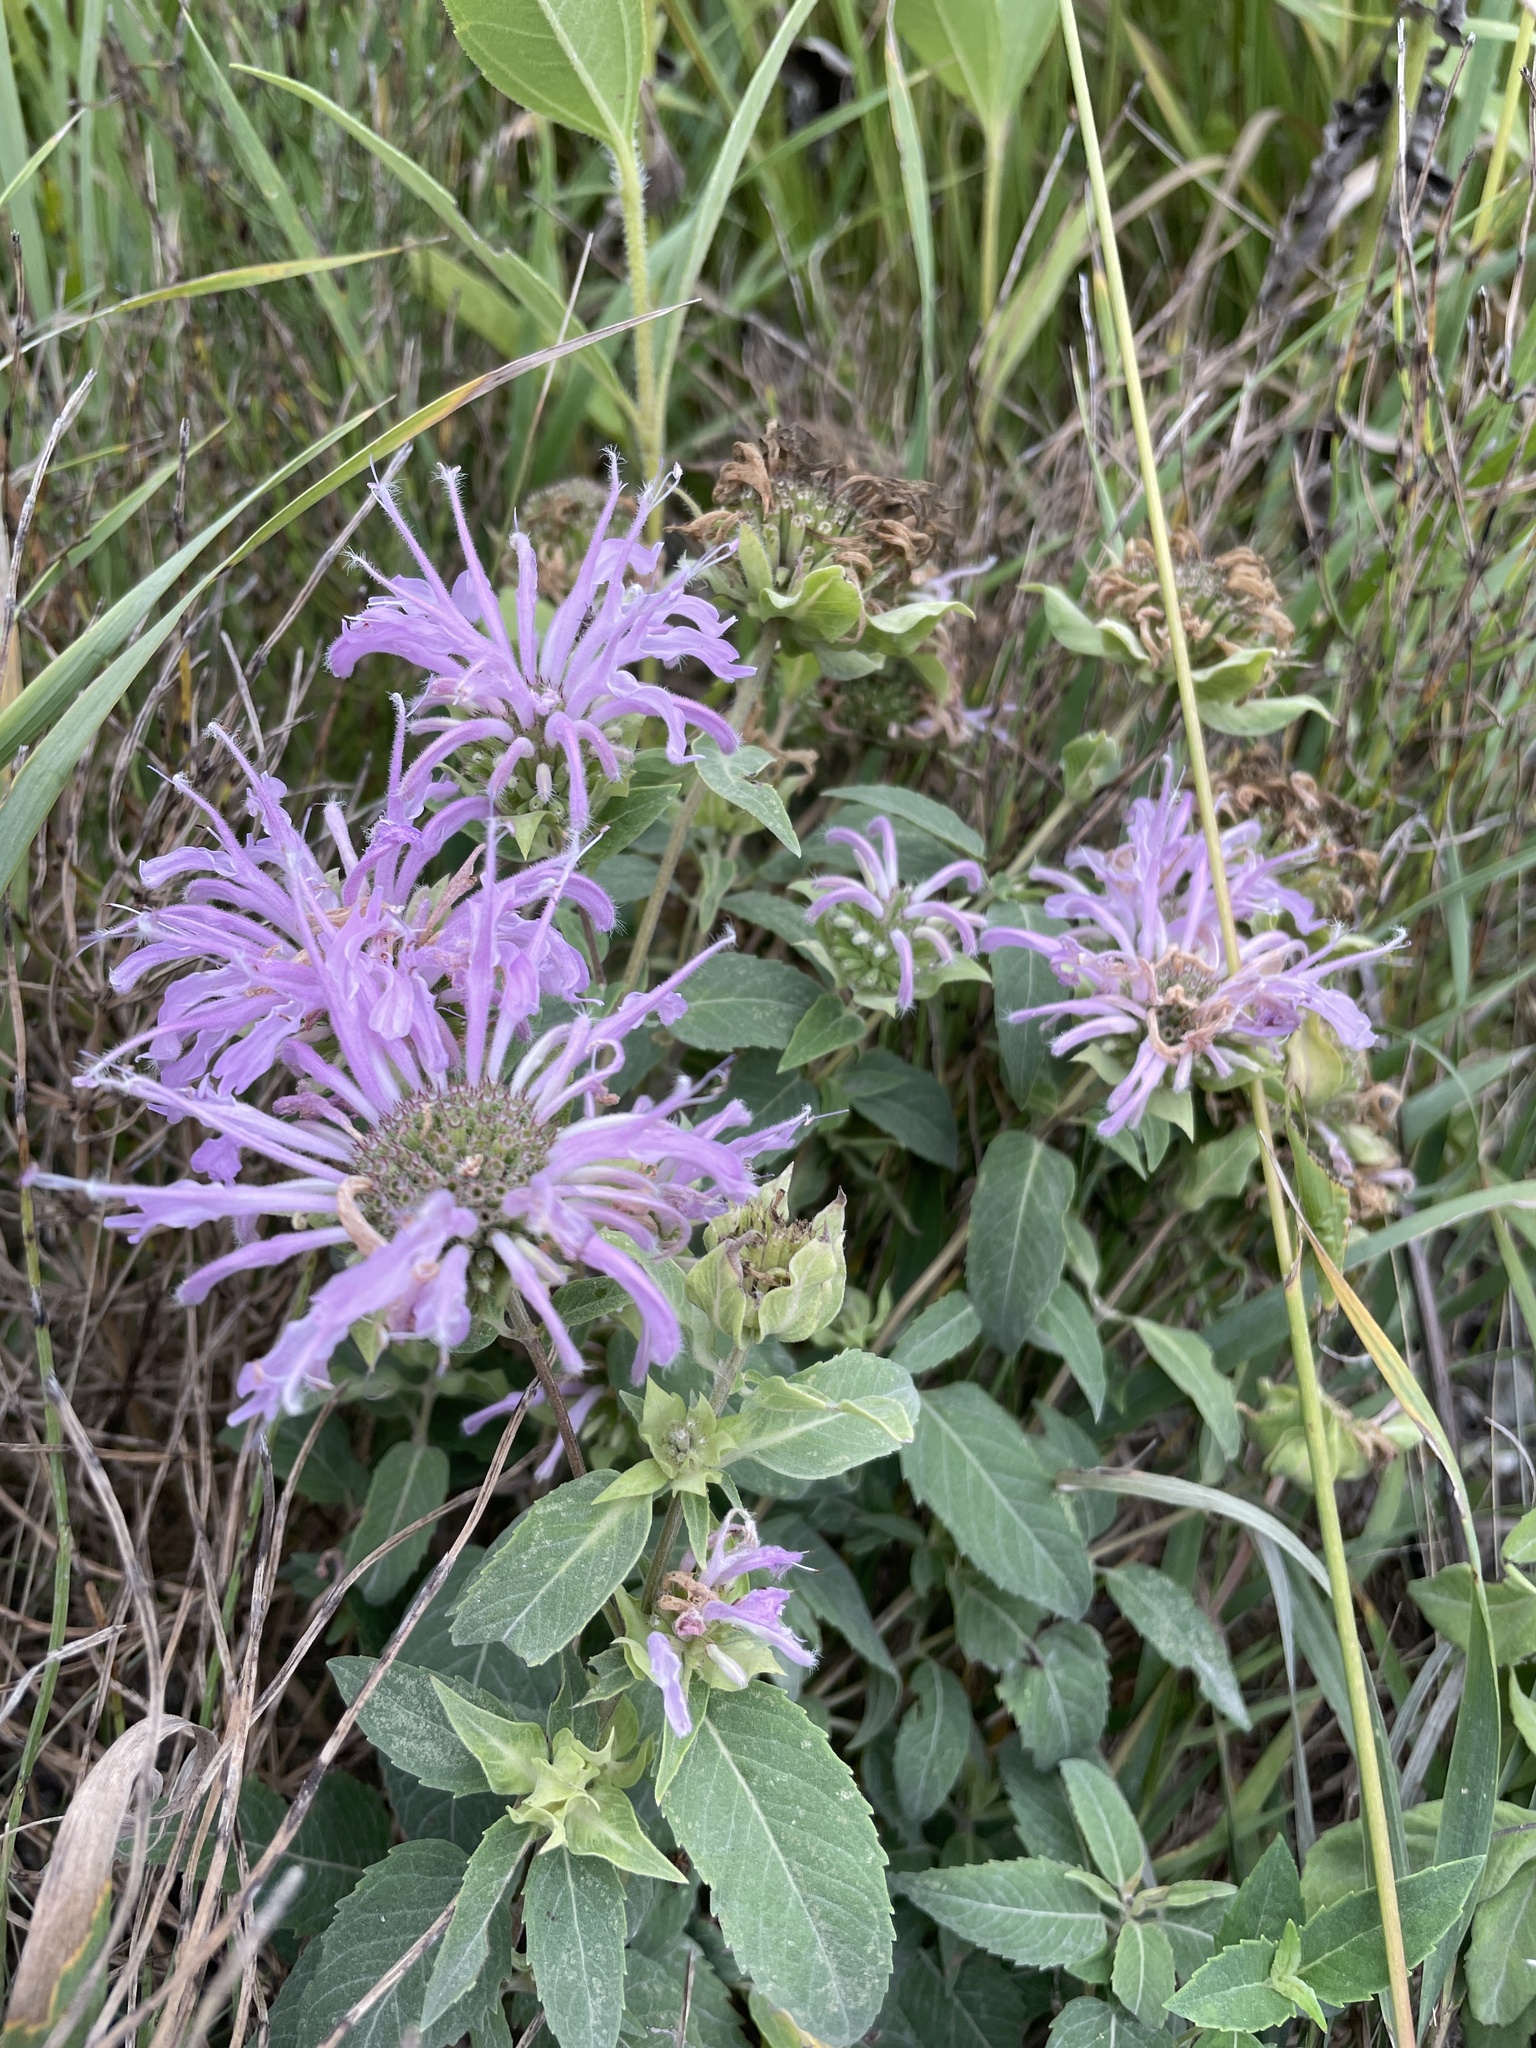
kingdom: Plantae
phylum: Tracheophyta
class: Magnoliopsida
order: Lamiales
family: Lamiaceae
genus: Monarda
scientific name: Monarda fistulosa
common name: Purple beebalm
